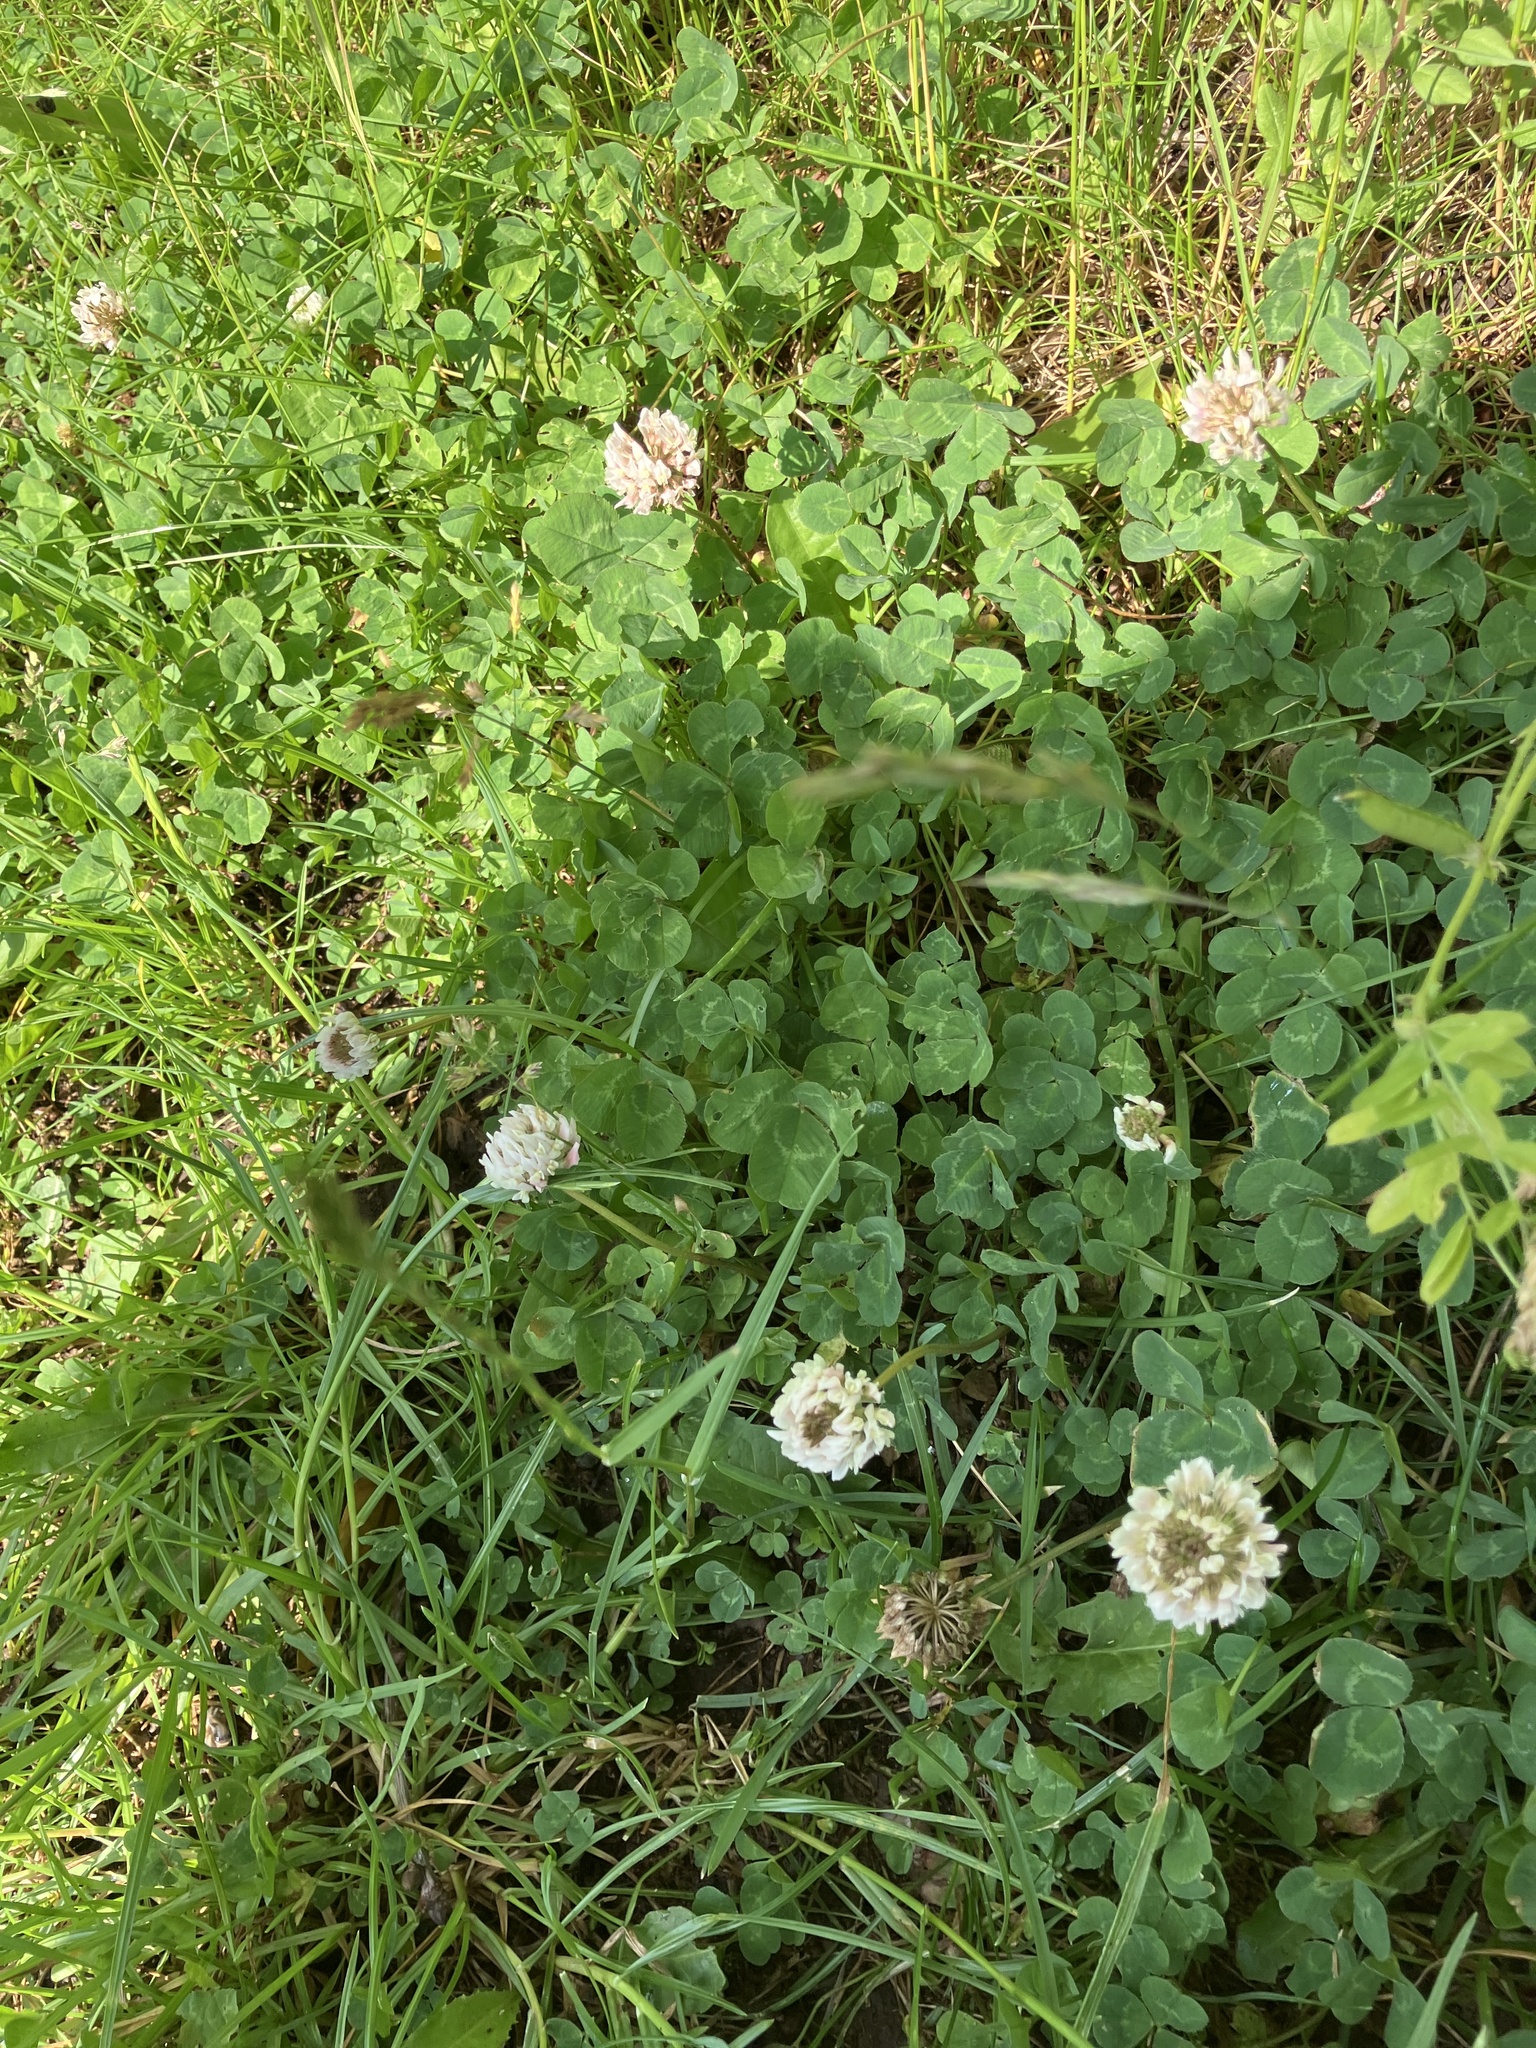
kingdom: Plantae
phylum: Tracheophyta
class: Magnoliopsida
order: Fabales
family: Fabaceae
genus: Trifolium
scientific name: Trifolium repens
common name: White clover
